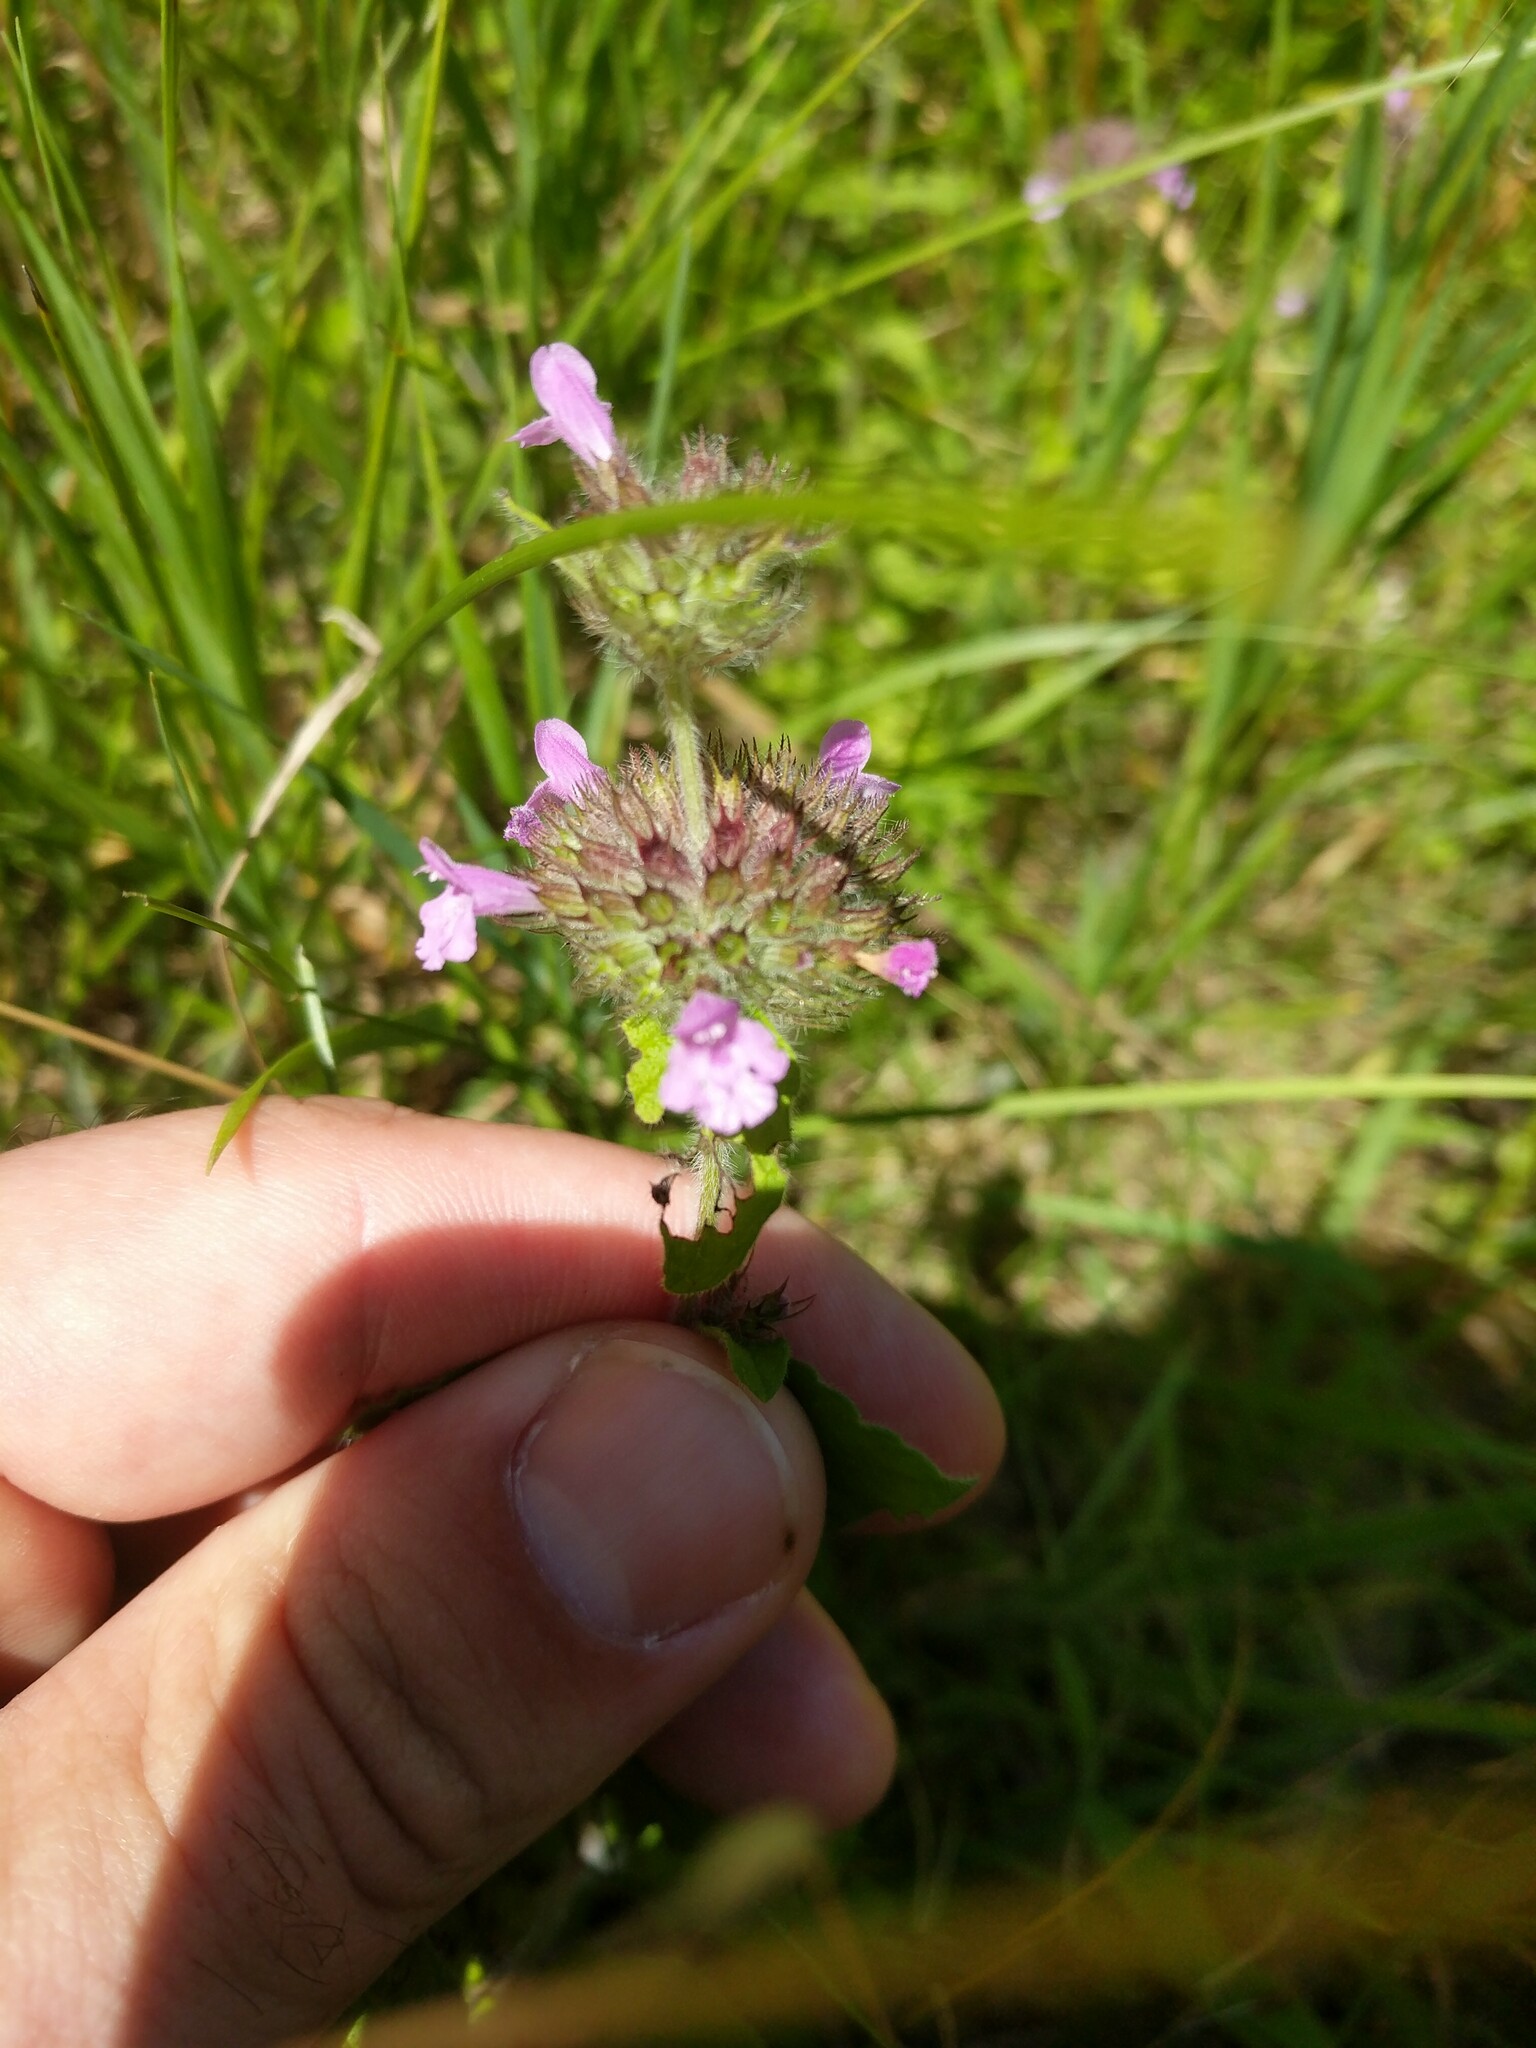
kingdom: Plantae
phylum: Tracheophyta
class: Magnoliopsida
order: Lamiales
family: Lamiaceae
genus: Clinopodium
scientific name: Clinopodium vulgare
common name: Wild basil
